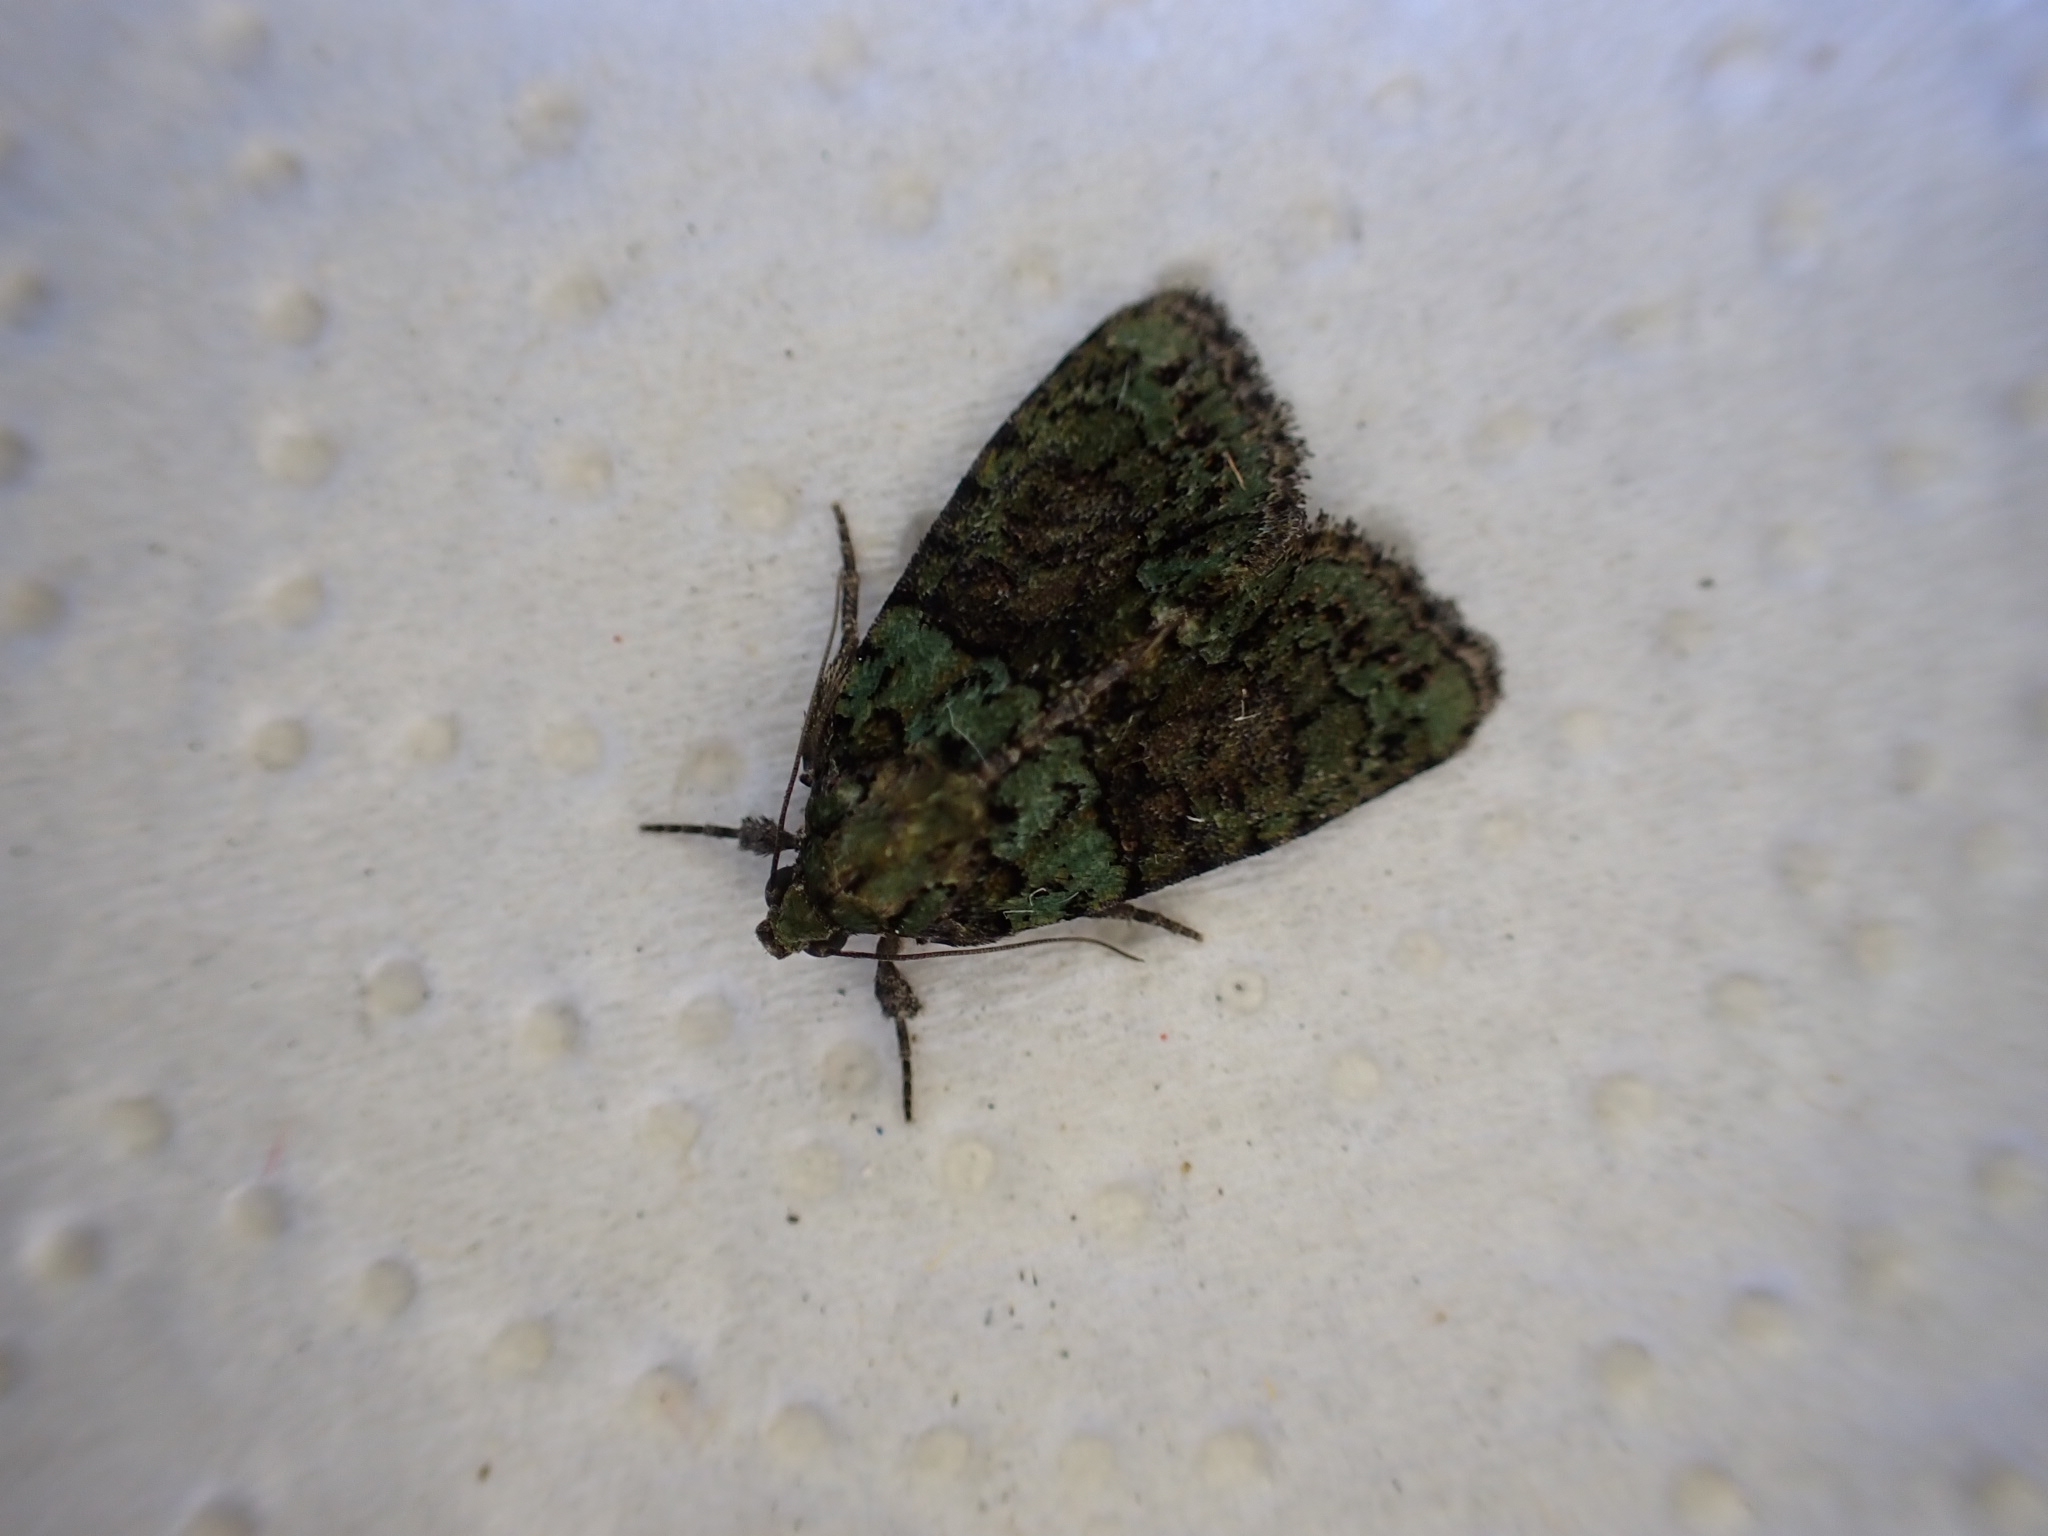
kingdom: Animalia
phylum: Arthropoda
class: Insecta
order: Lepidoptera
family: Noctuidae
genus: Cryphia
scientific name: Cryphia algae
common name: Tree-lichen beauty
